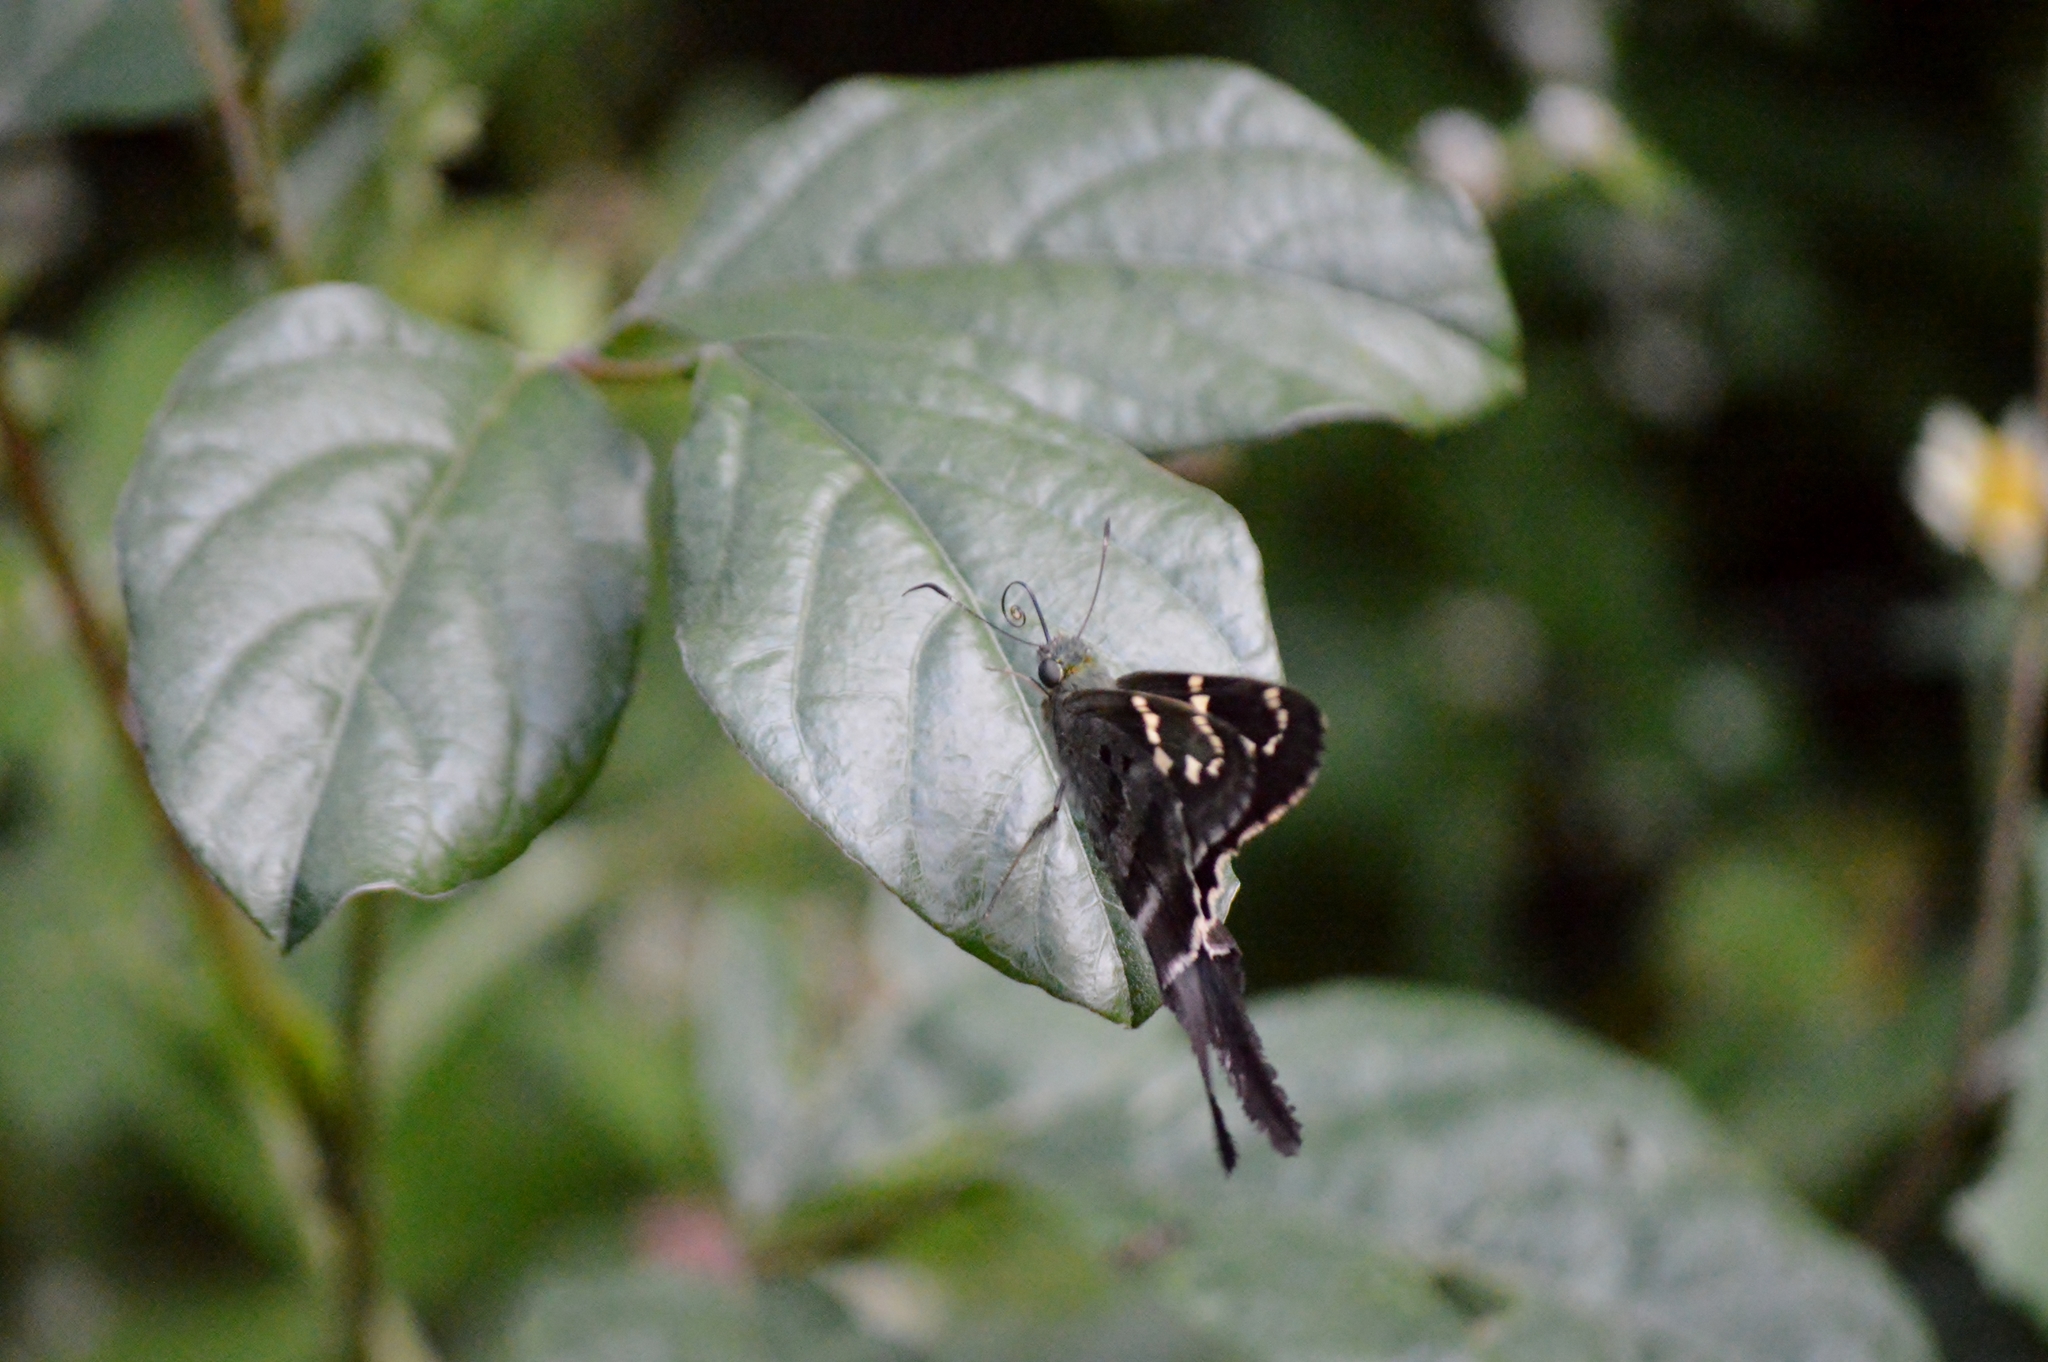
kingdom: Animalia
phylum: Arthropoda
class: Insecta
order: Lepidoptera
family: Hesperiidae
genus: Urbanus
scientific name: Urbanus proteus
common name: Long-tailed skipper
